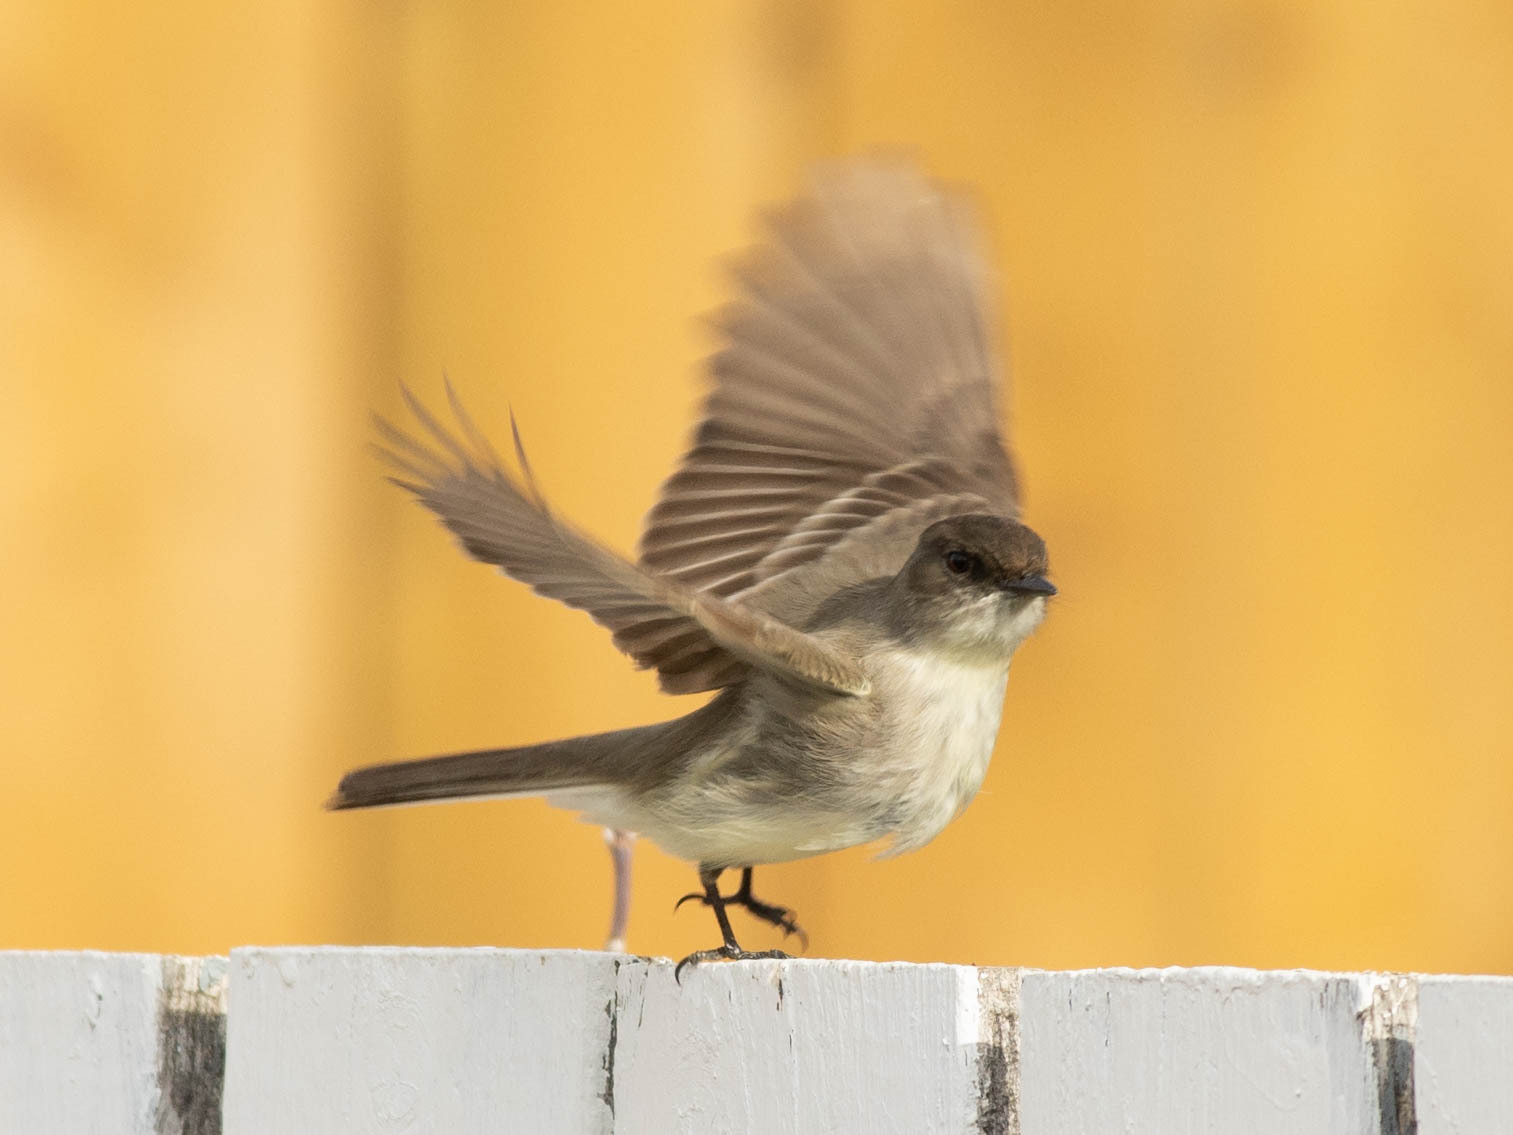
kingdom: Animalia
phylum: Chordata
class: Aves
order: Passeriformes
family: Tyrannidae
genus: Sayornis
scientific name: Sayornis phoebe
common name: Eastern phoebe
